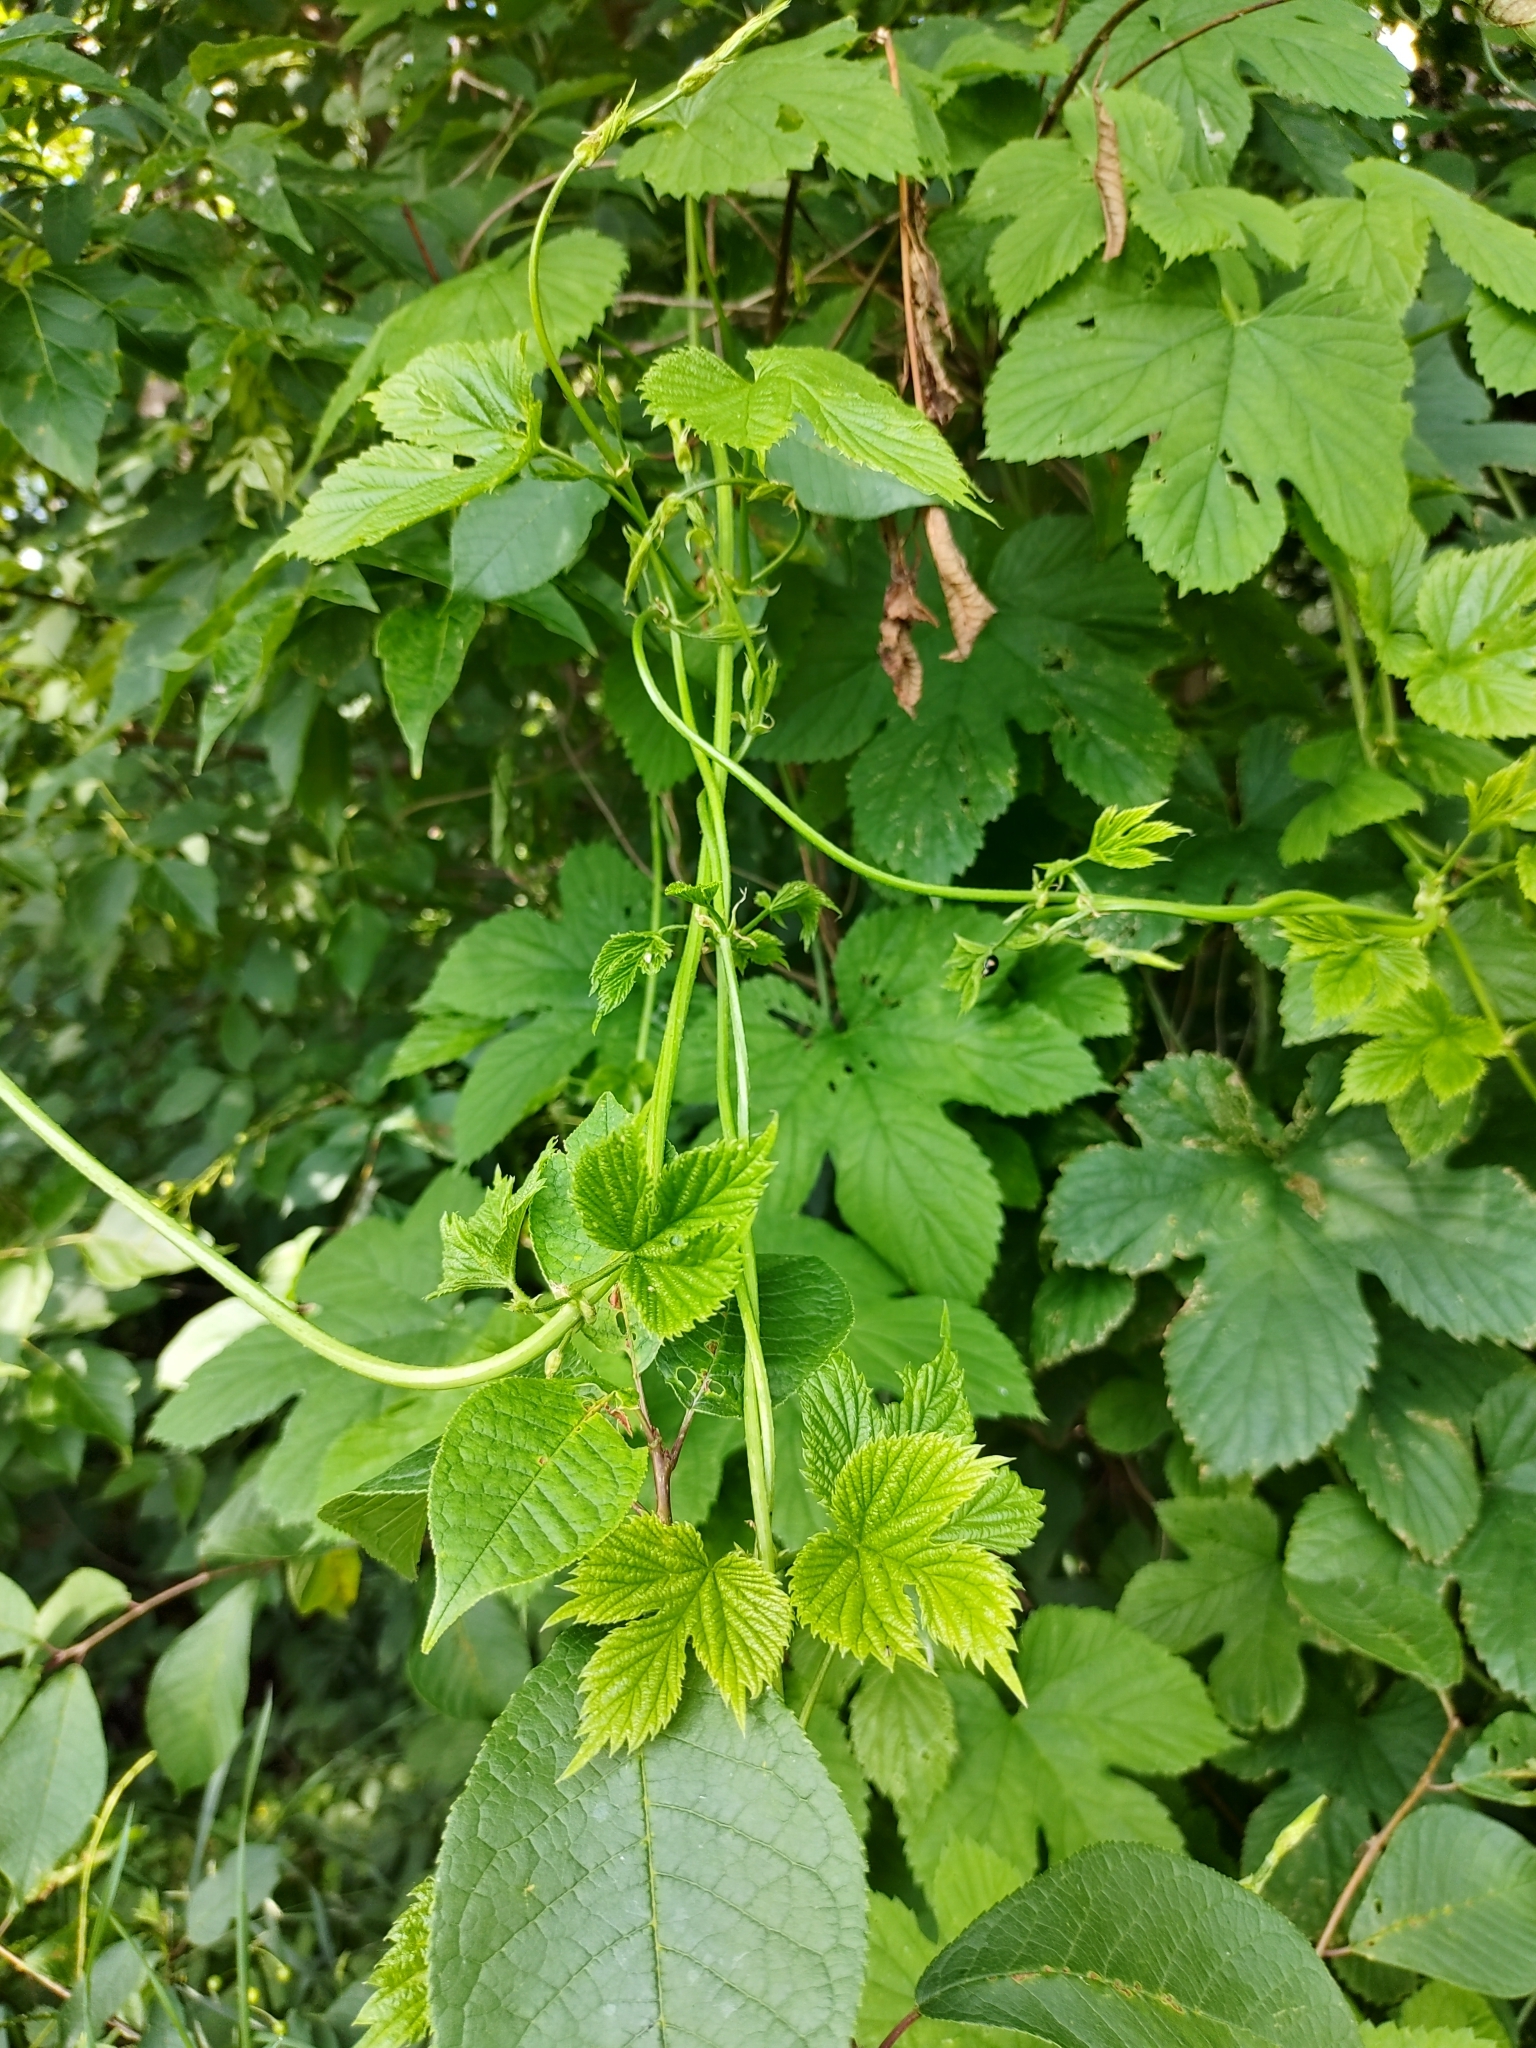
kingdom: Plantae
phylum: Tracheophyta
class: Magnoliopsida
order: Rosales
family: Cannabaceae
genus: Humulus
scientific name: Humulus lupulus
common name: Hop
